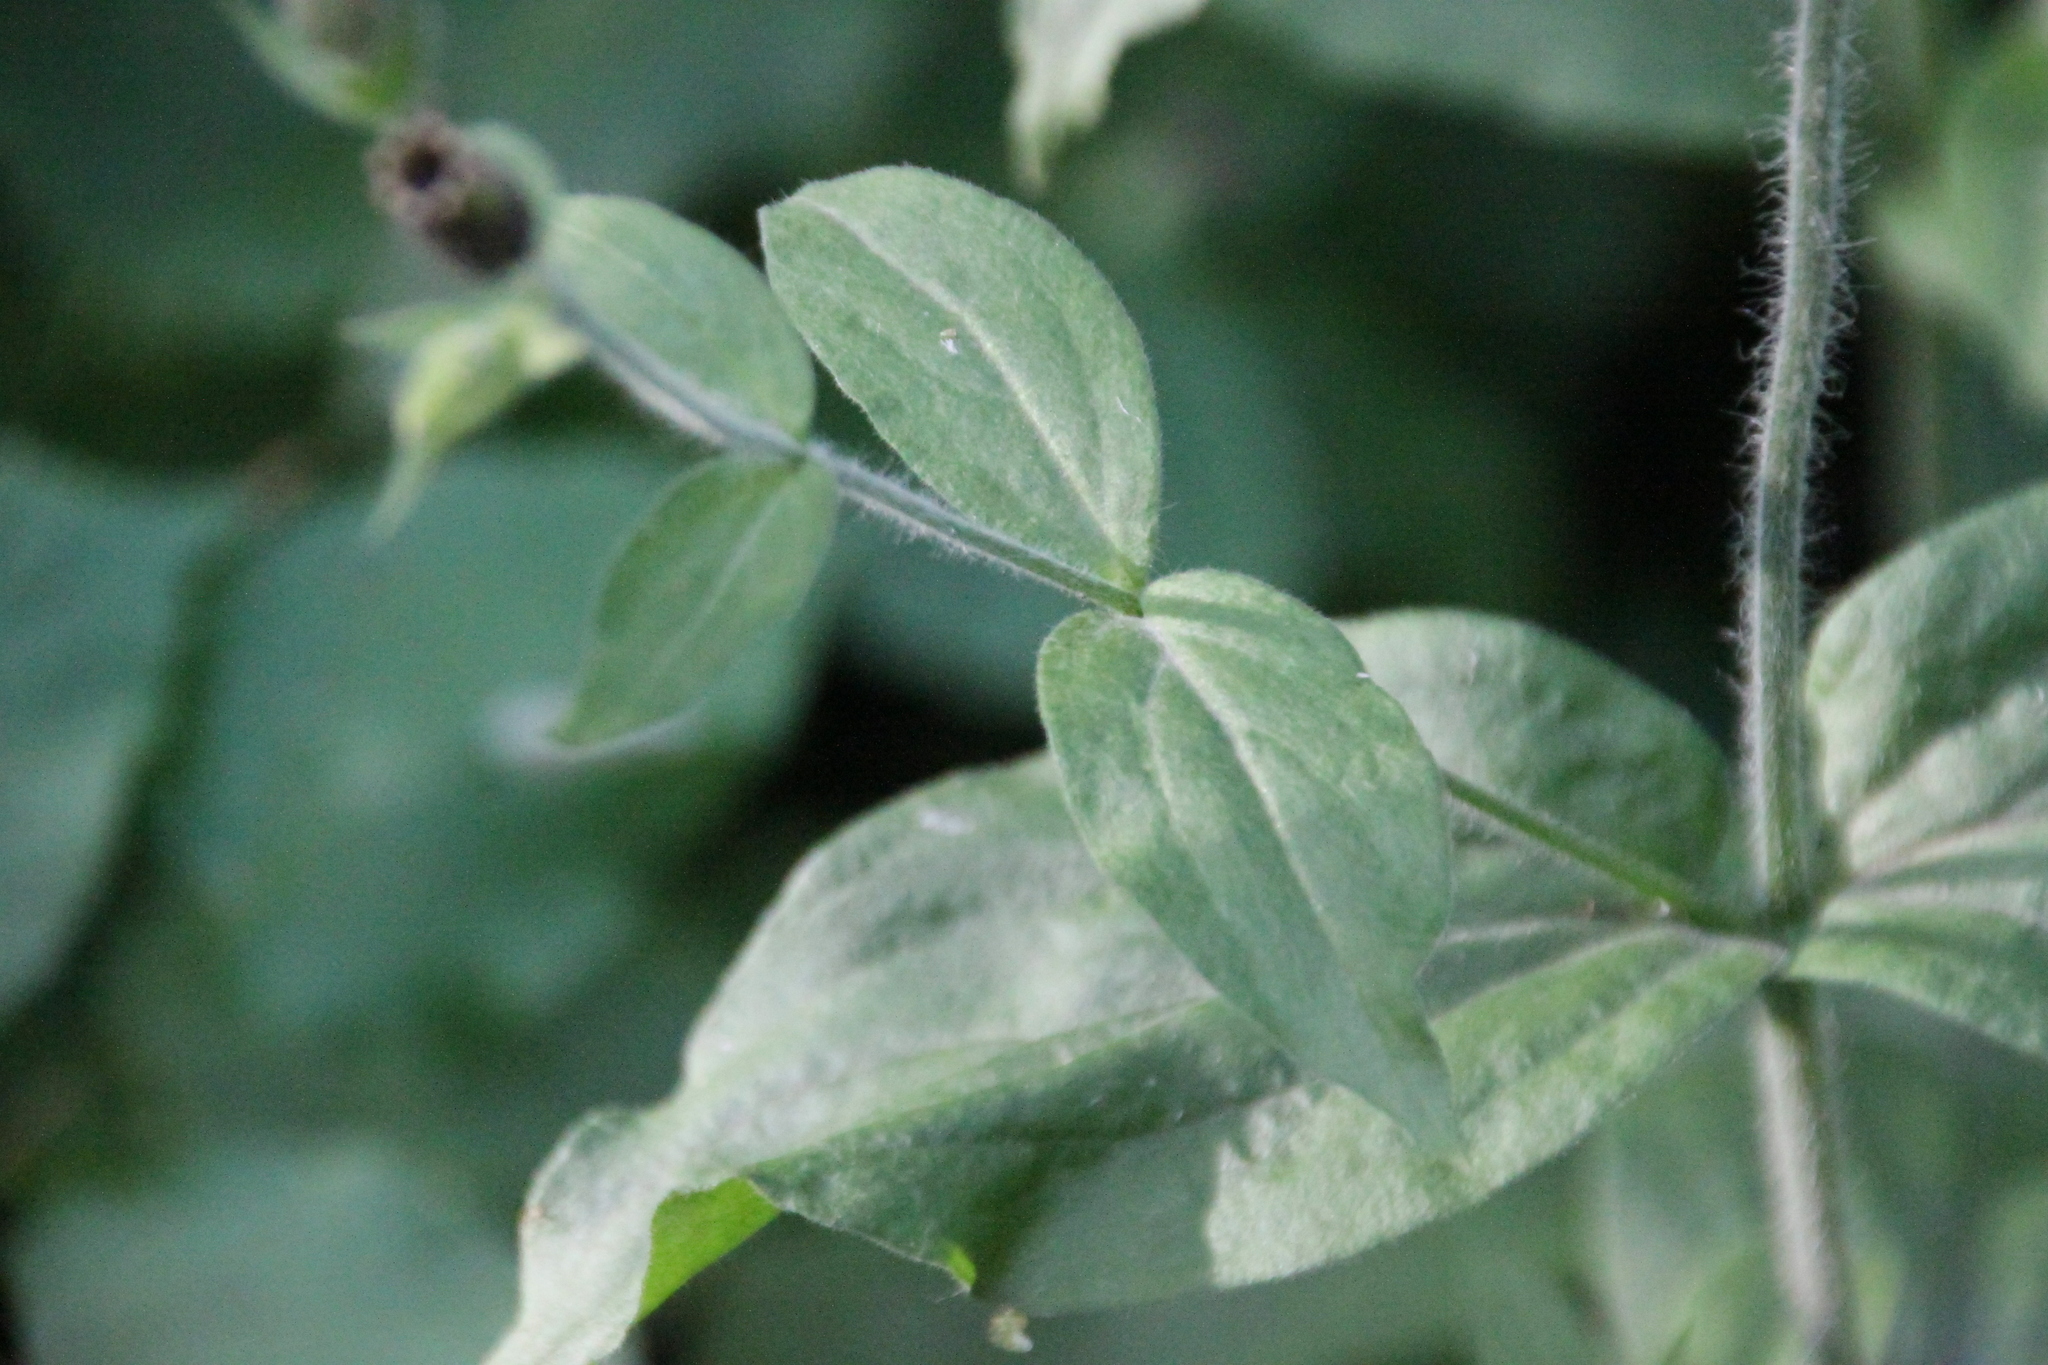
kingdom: Plantae
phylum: Tracheophyta
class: Magnoliopsida
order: Caryophyllales
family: Caryophyllaceae
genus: Silene
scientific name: Silene dioica
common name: Red campion
